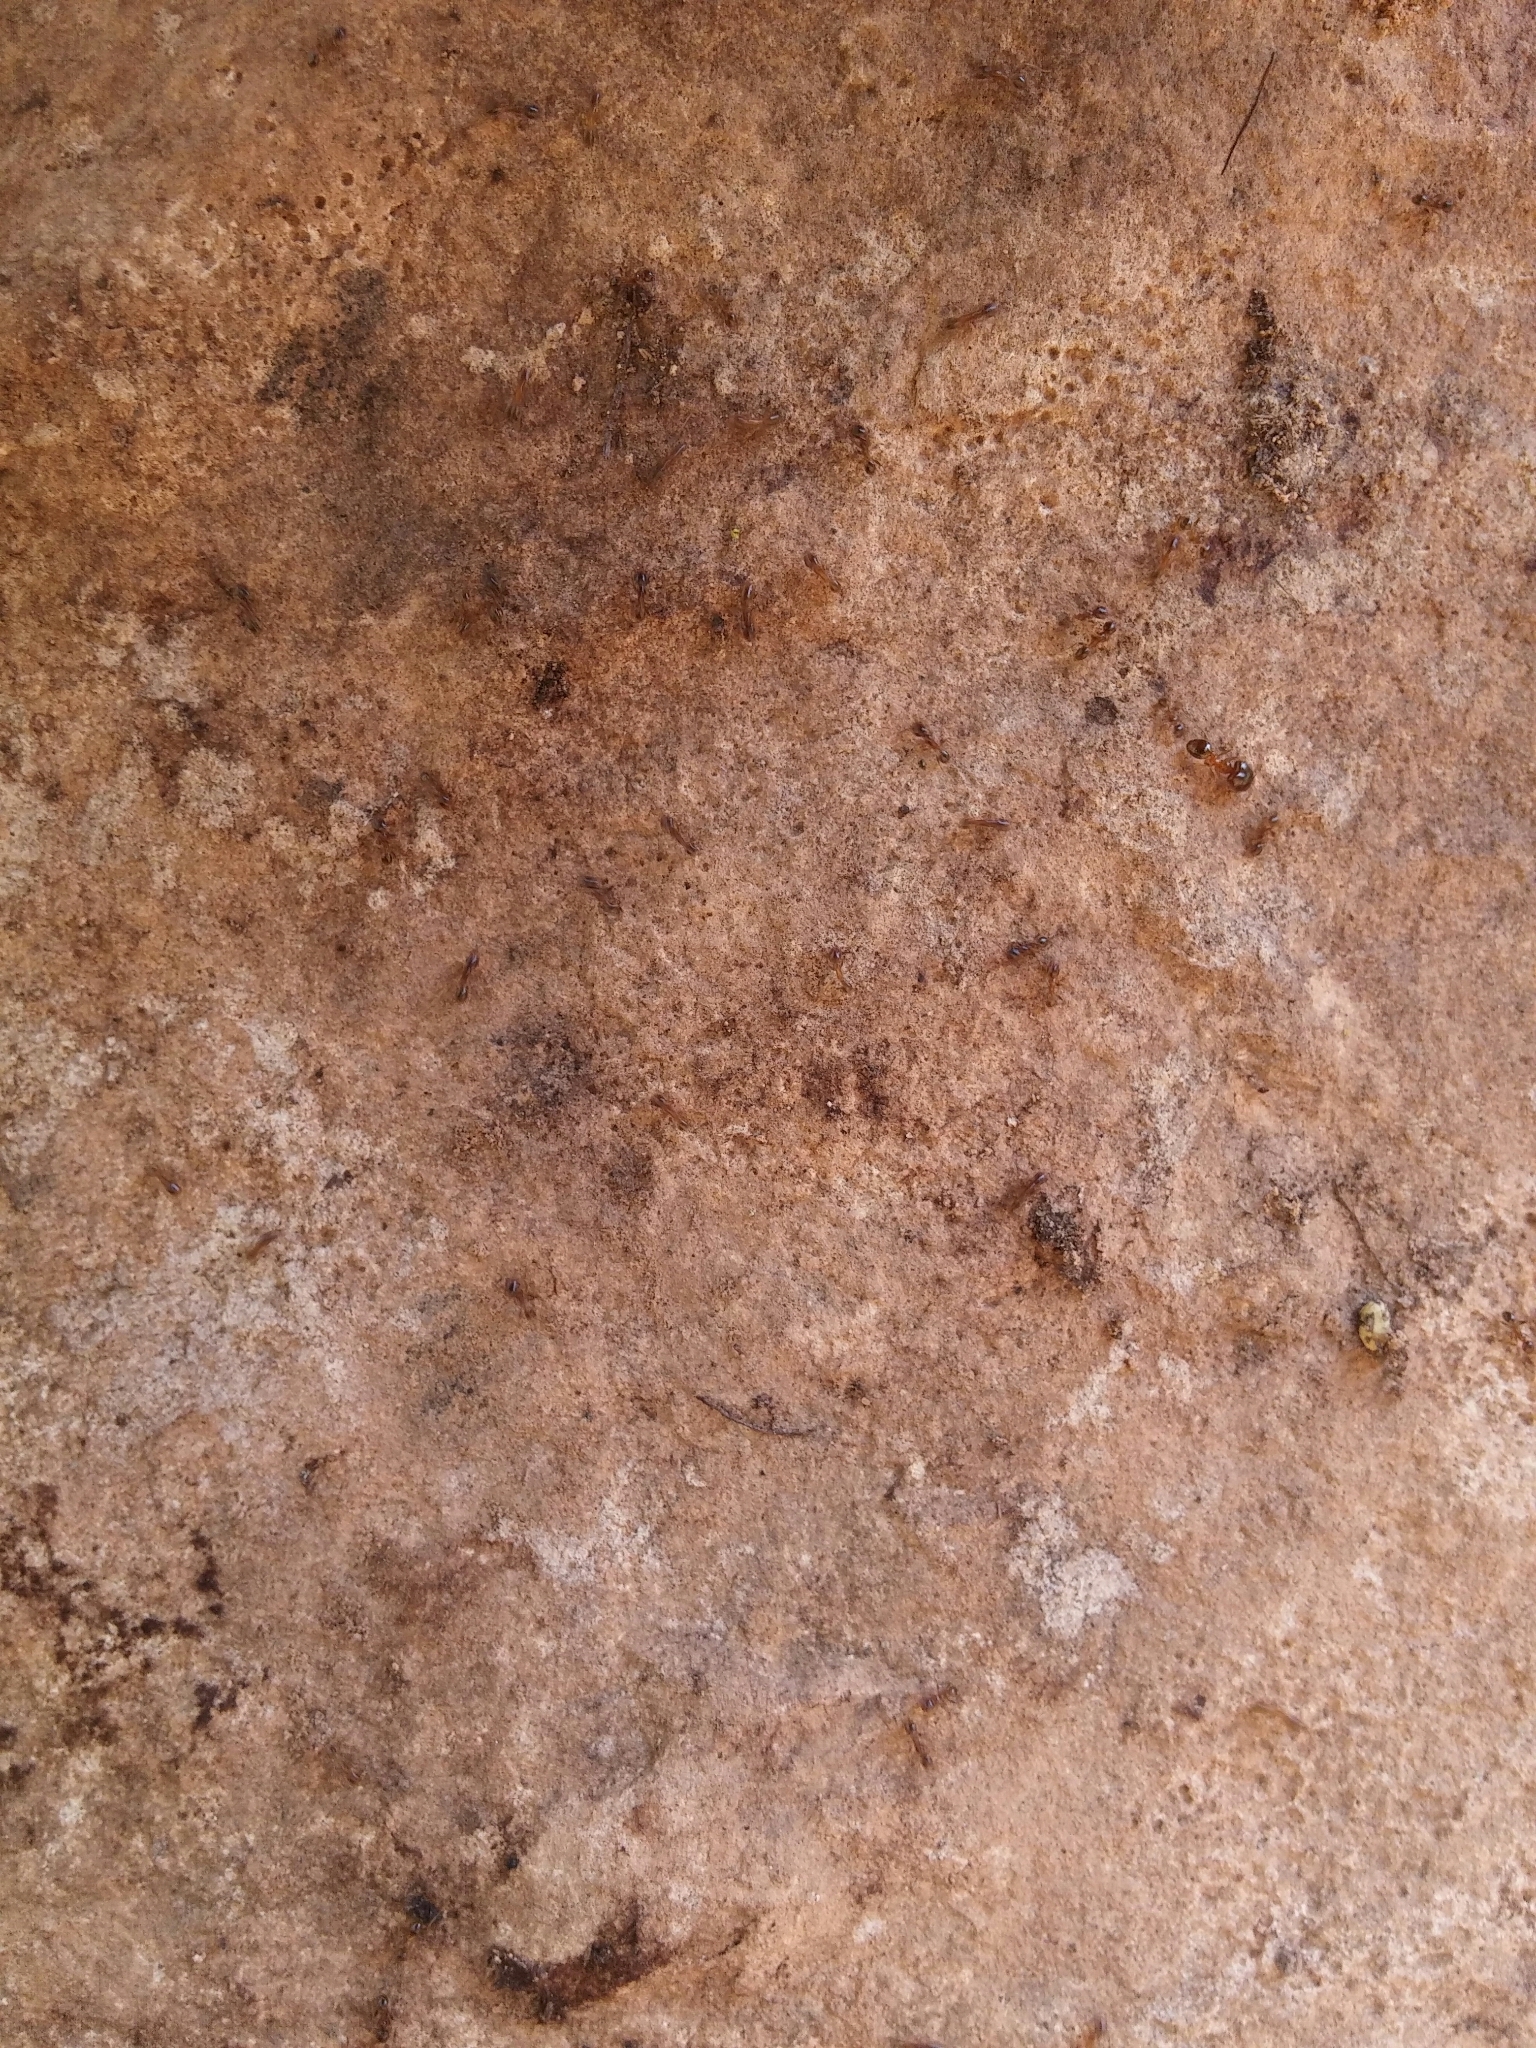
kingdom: Animalia
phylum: Arthropoda
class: Insecta
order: Hymenoptera
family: Formicidae
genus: Pheidole
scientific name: Pheidole pallidula
